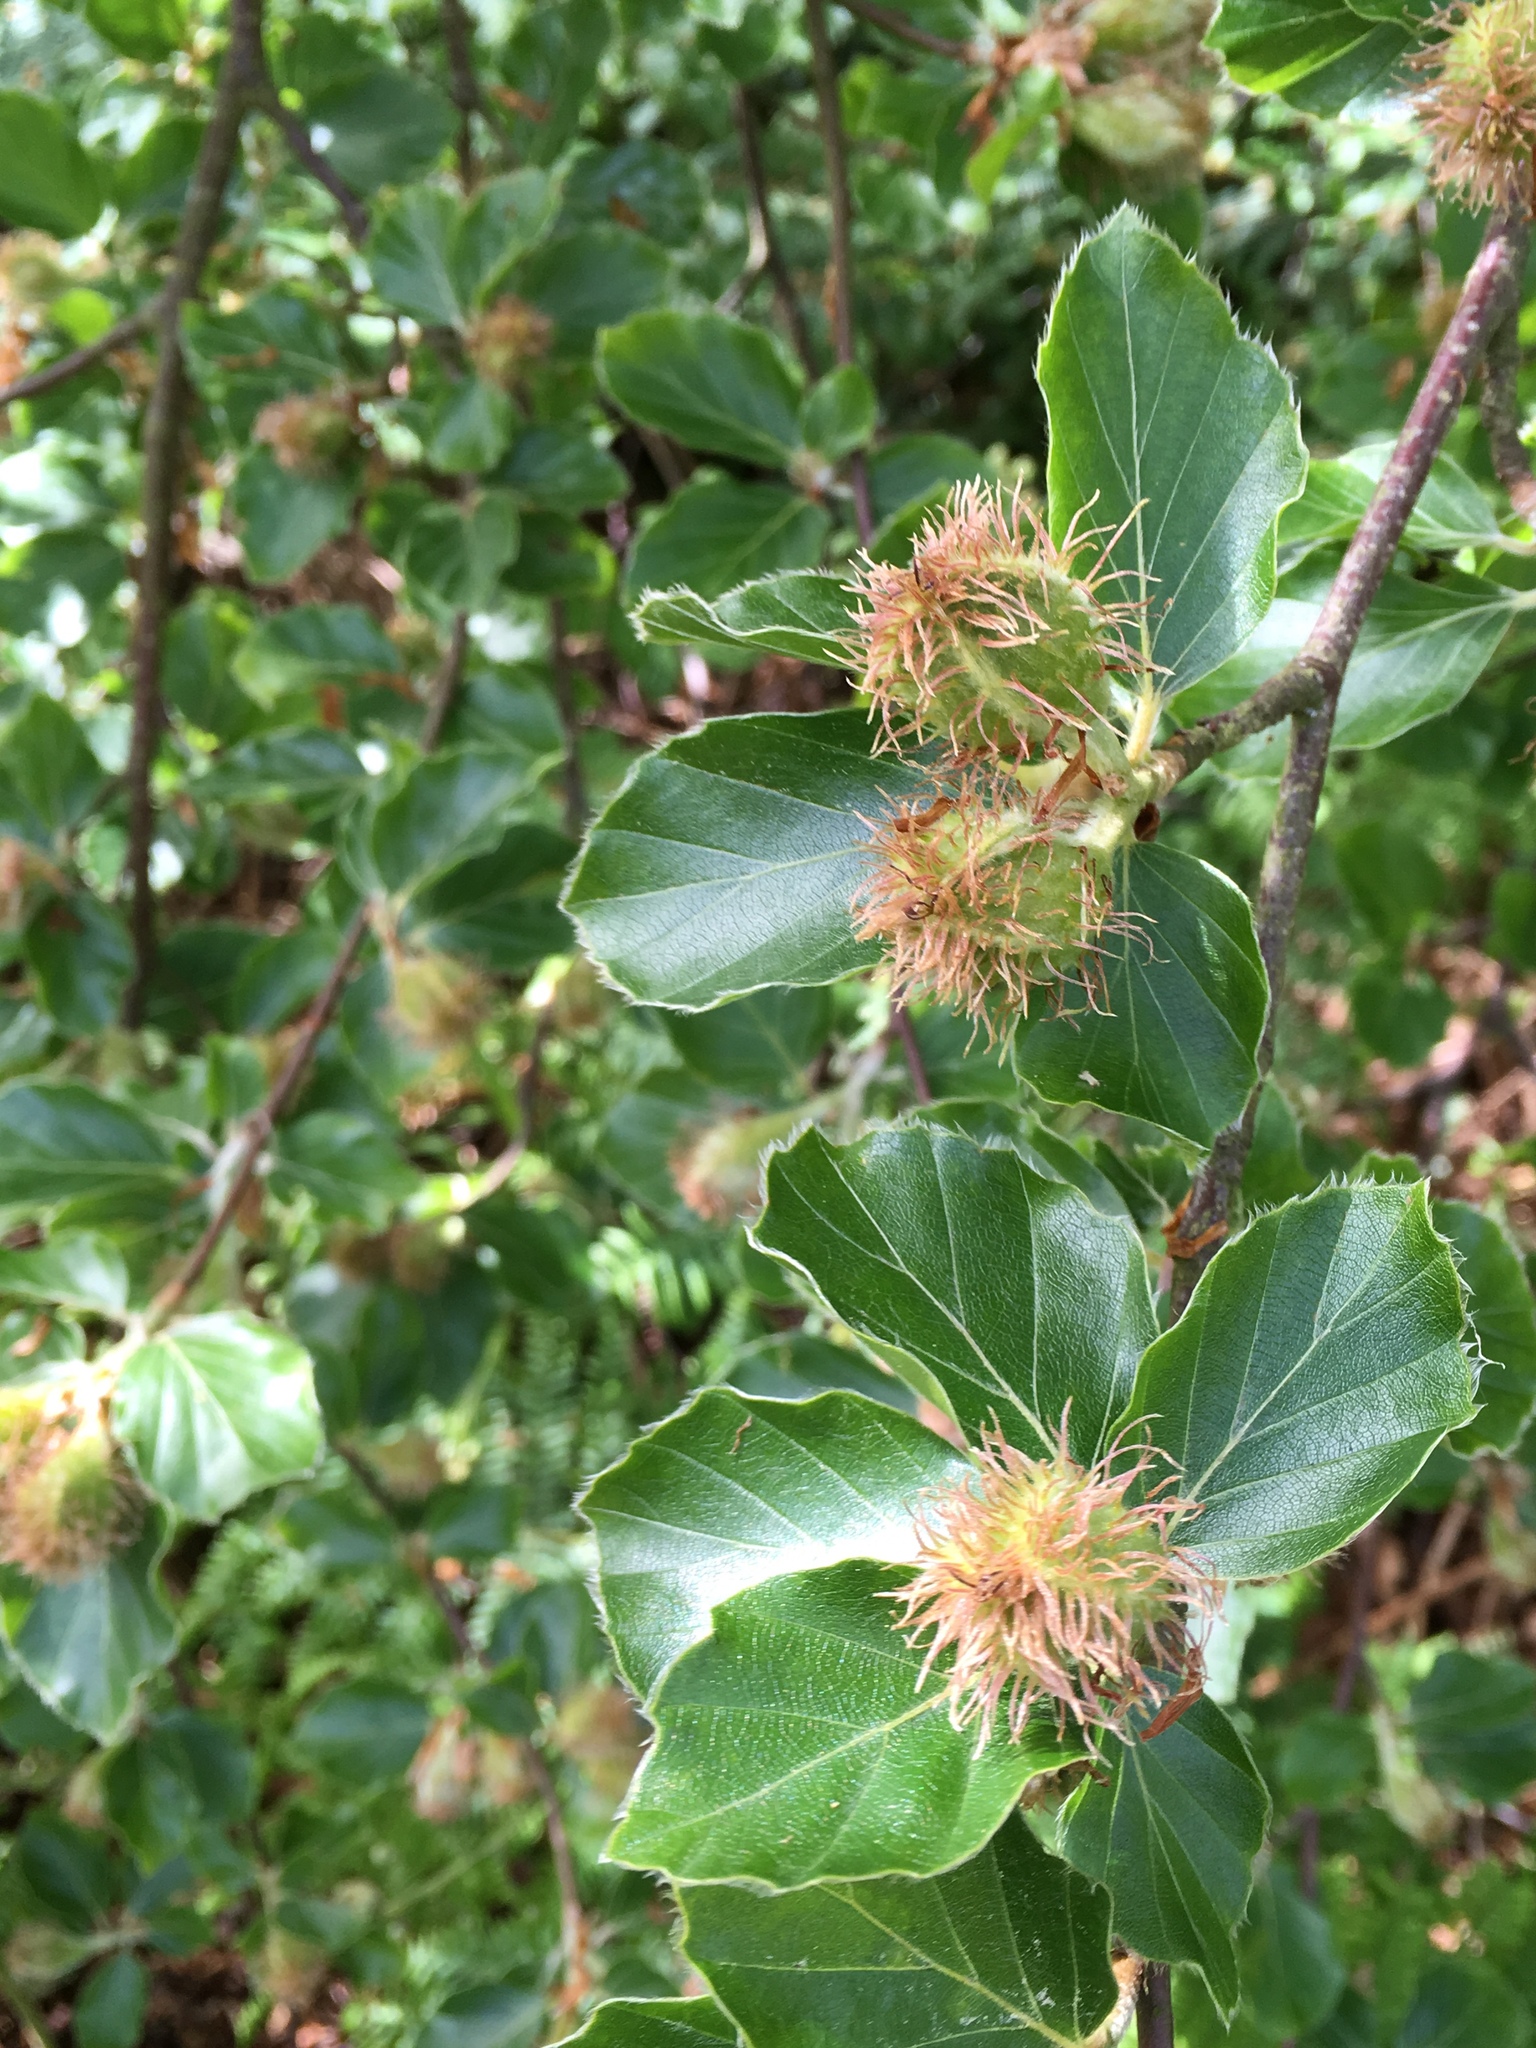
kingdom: Plantae
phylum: Tracheophyta
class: Magnoliopsida
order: Fagales
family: Fagaceae
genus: Fagus
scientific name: Fagus sylvatica
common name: Beech
